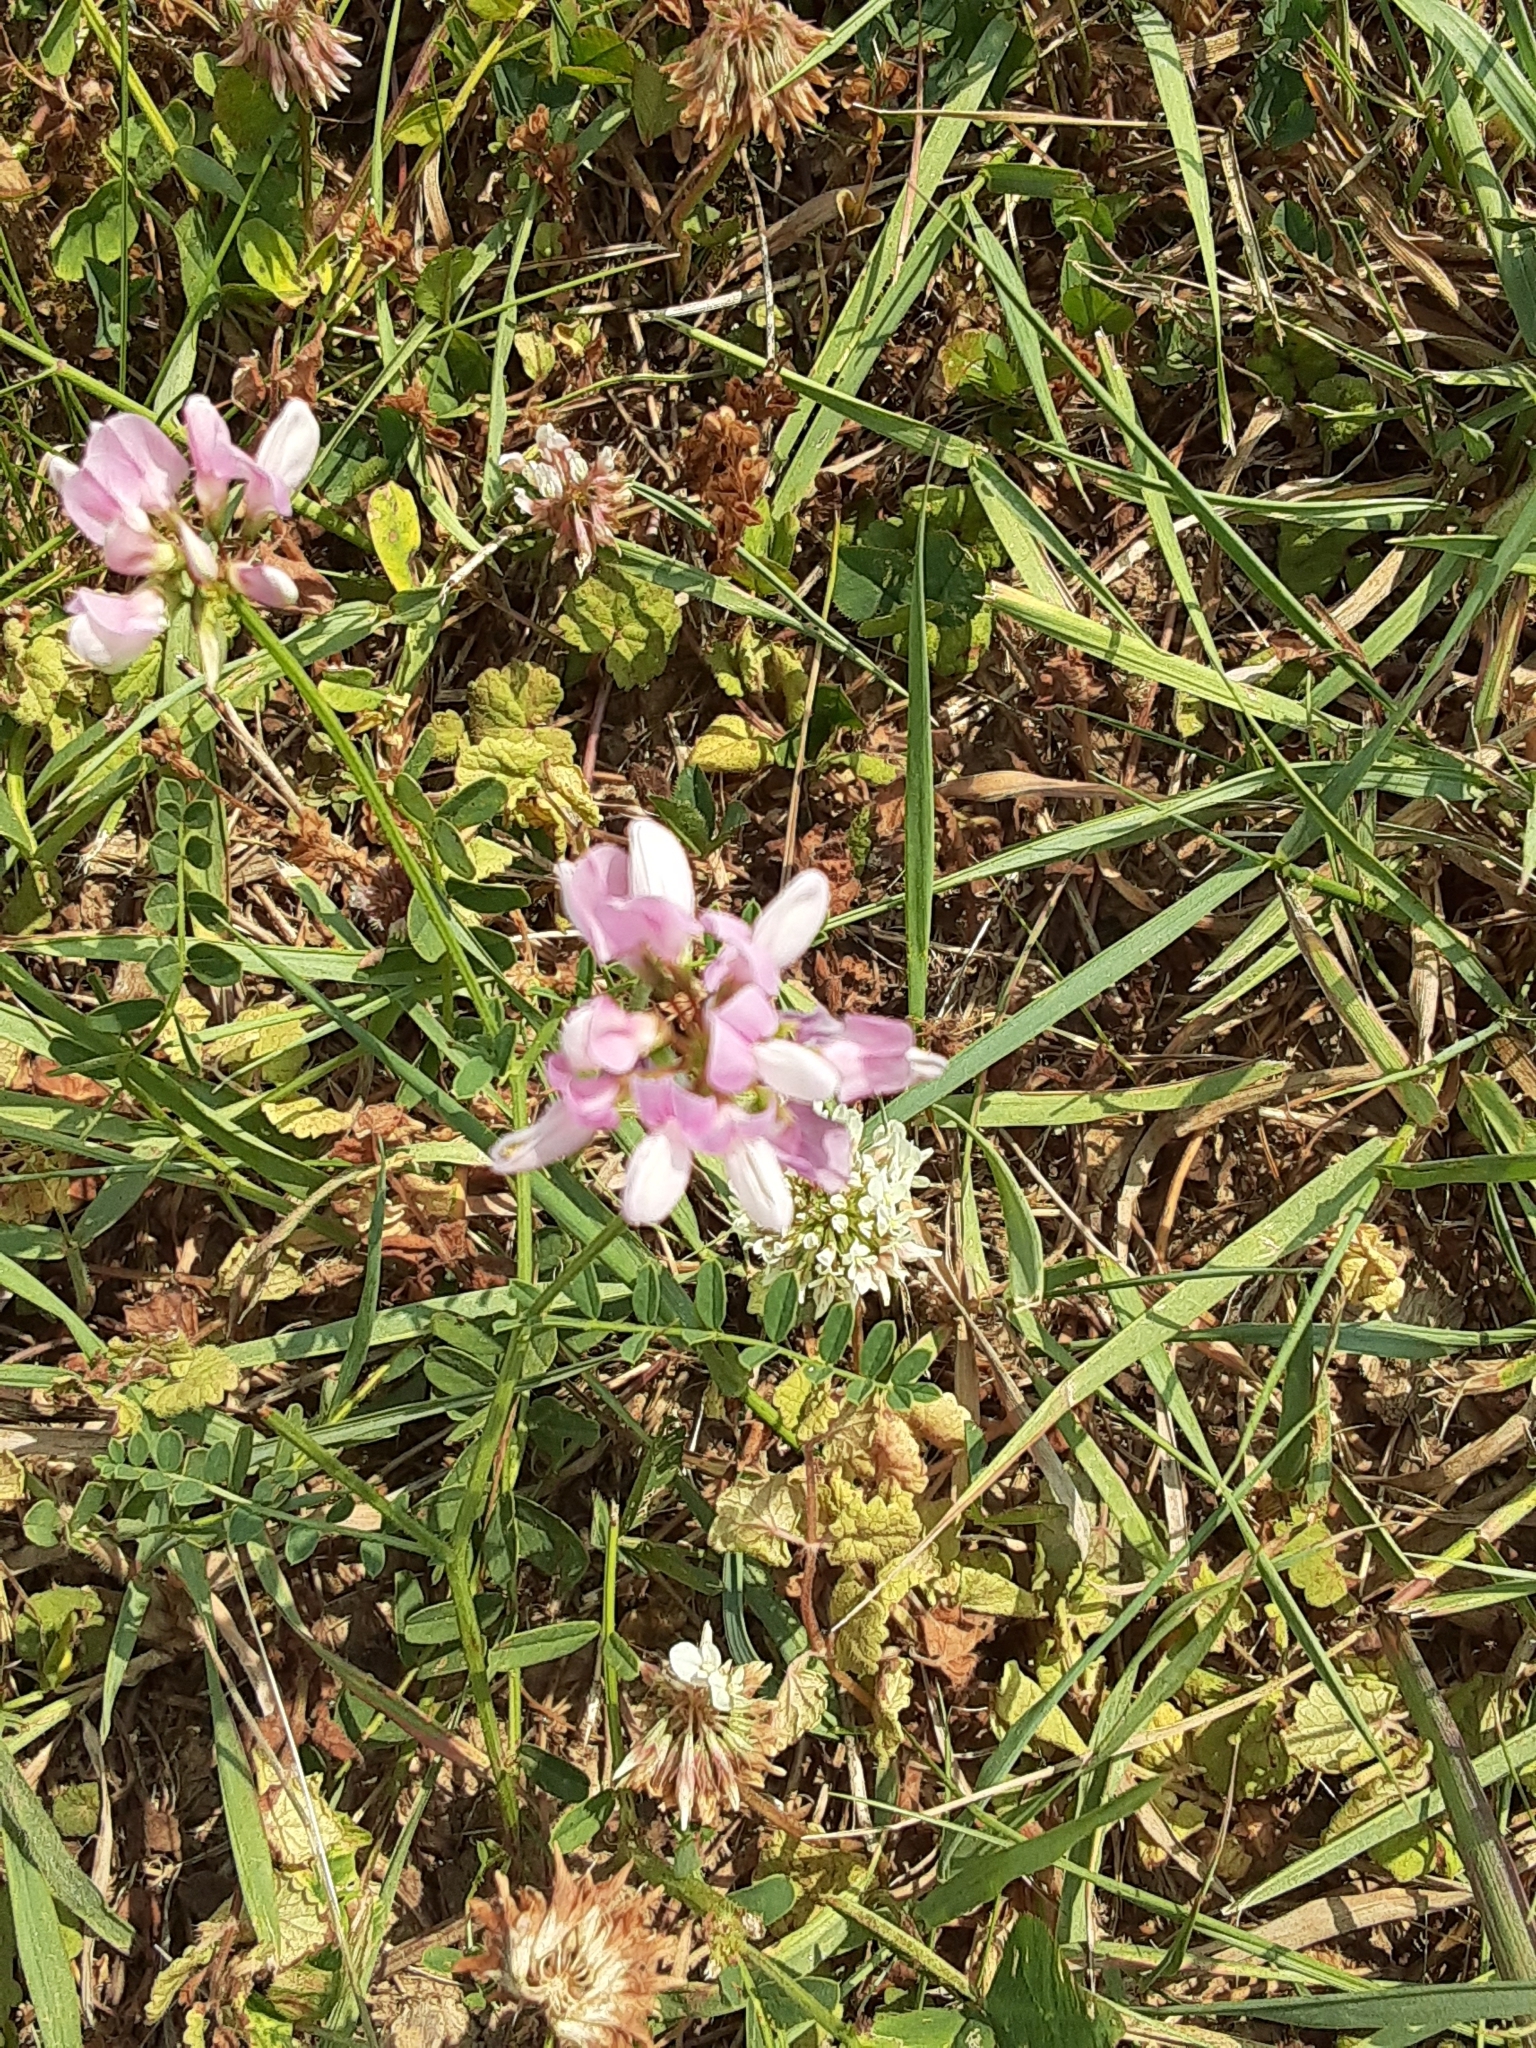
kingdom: Plantae
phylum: Tracheophyta
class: Magnoliopsida
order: Fabales
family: Fabaceae
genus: Coronilla
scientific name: Coronilla varia
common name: Crownvetch
